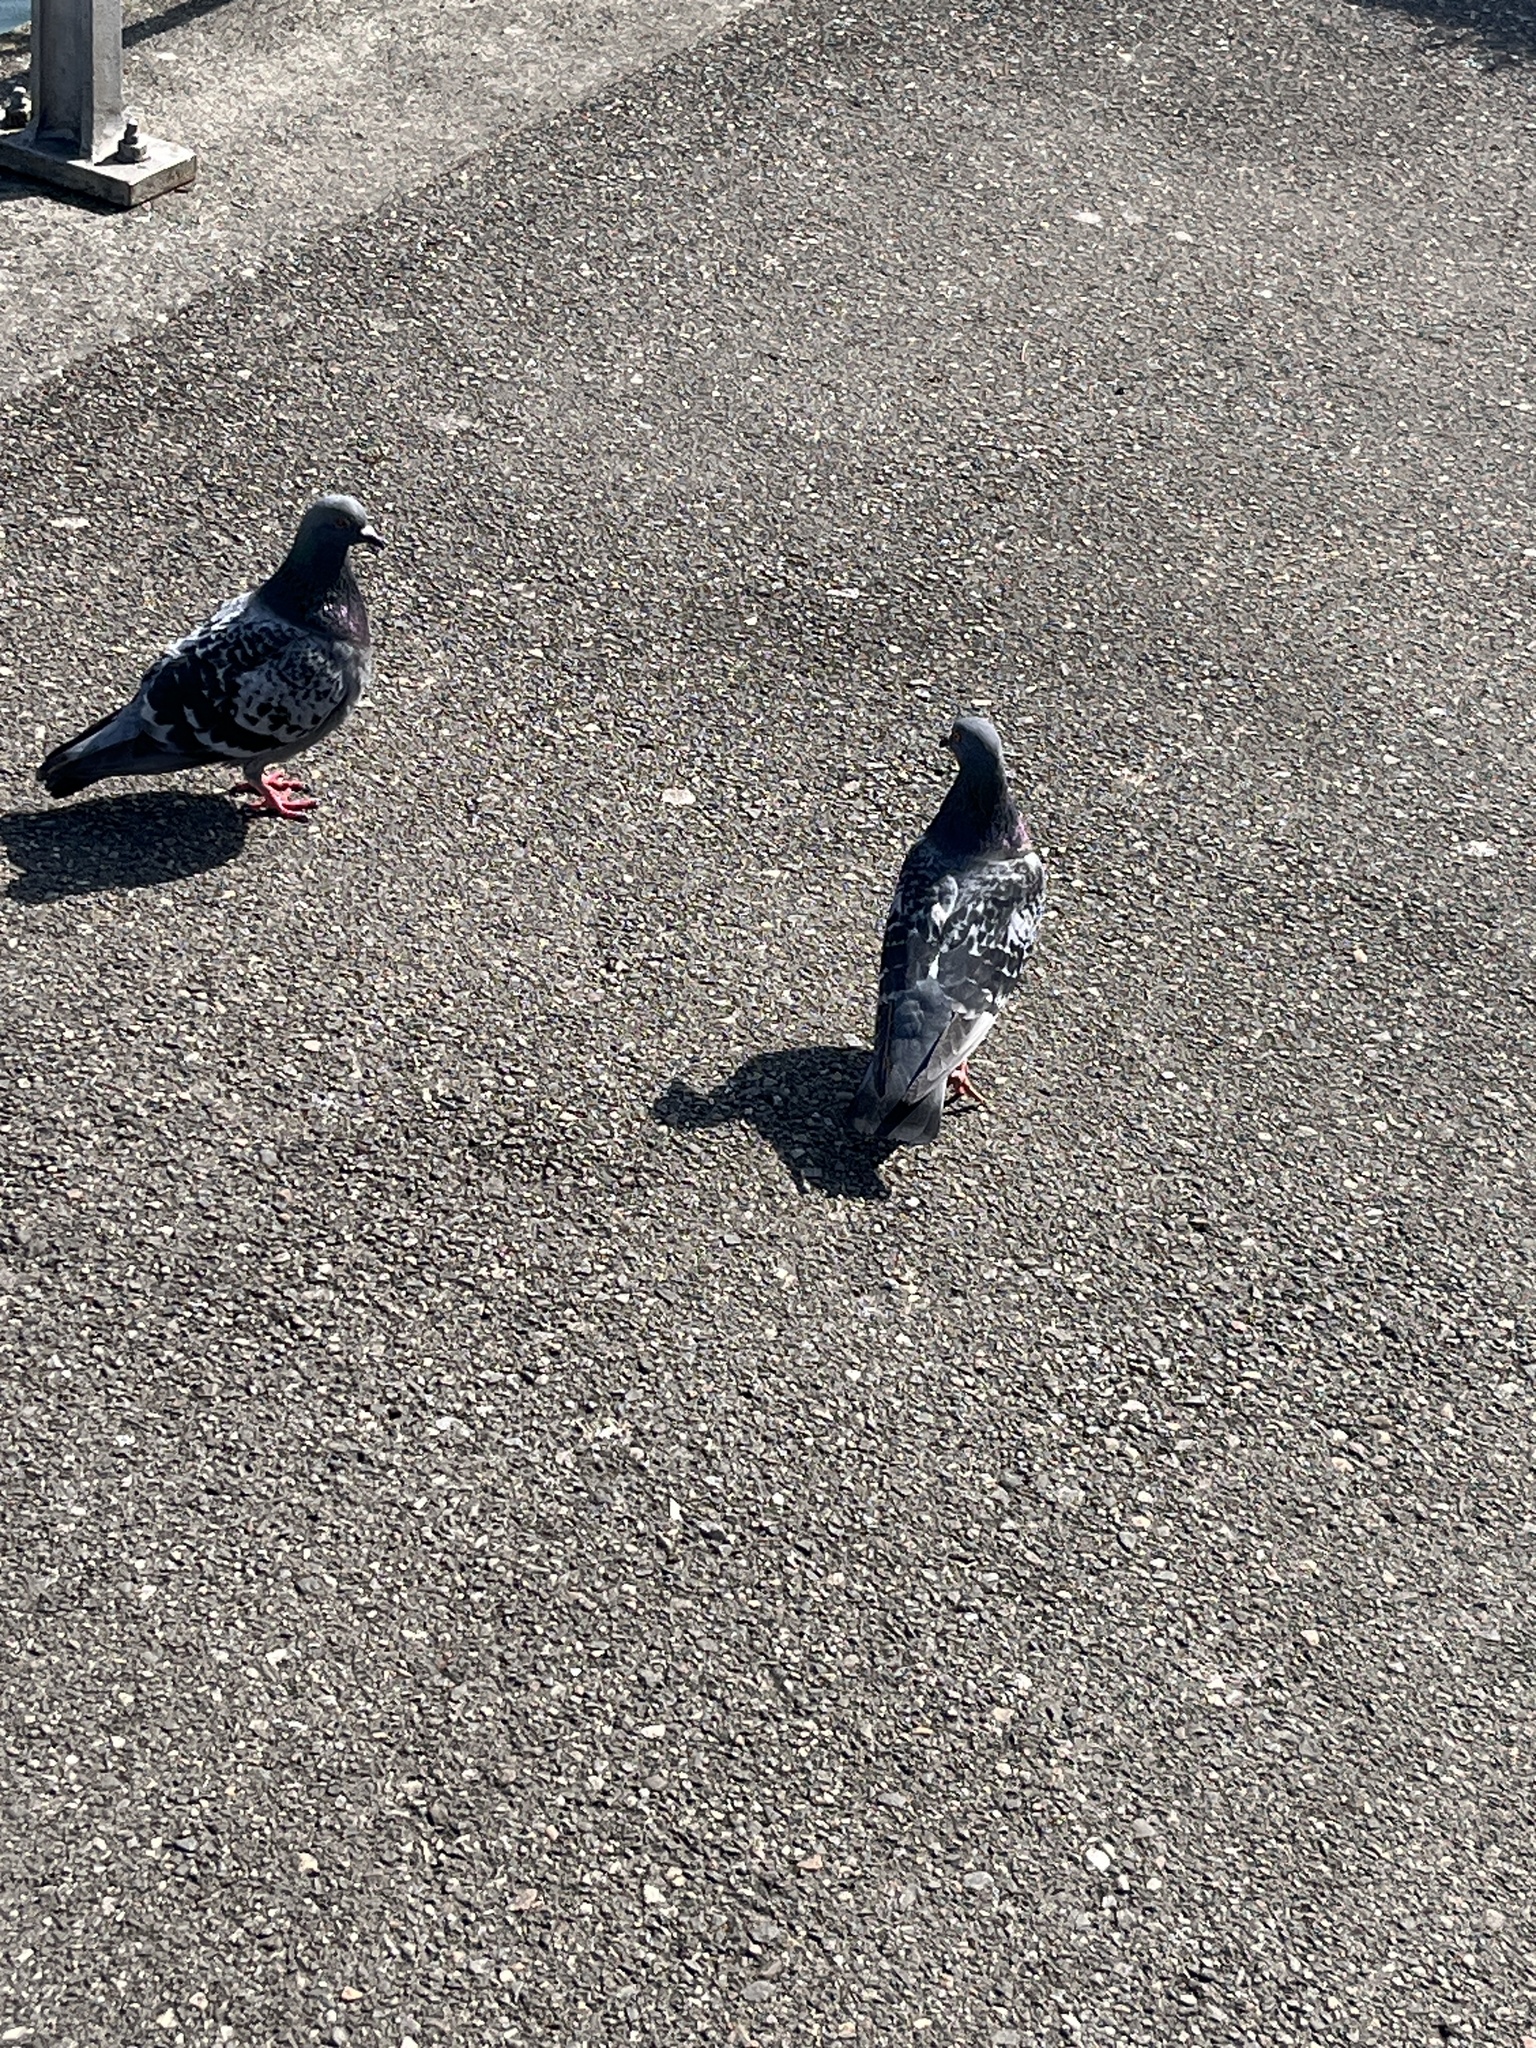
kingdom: Animalia
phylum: Chordata
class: Aves
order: Columbiformes
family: Columbidae
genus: Columba
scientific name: Columba livia
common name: Rock pigeon
